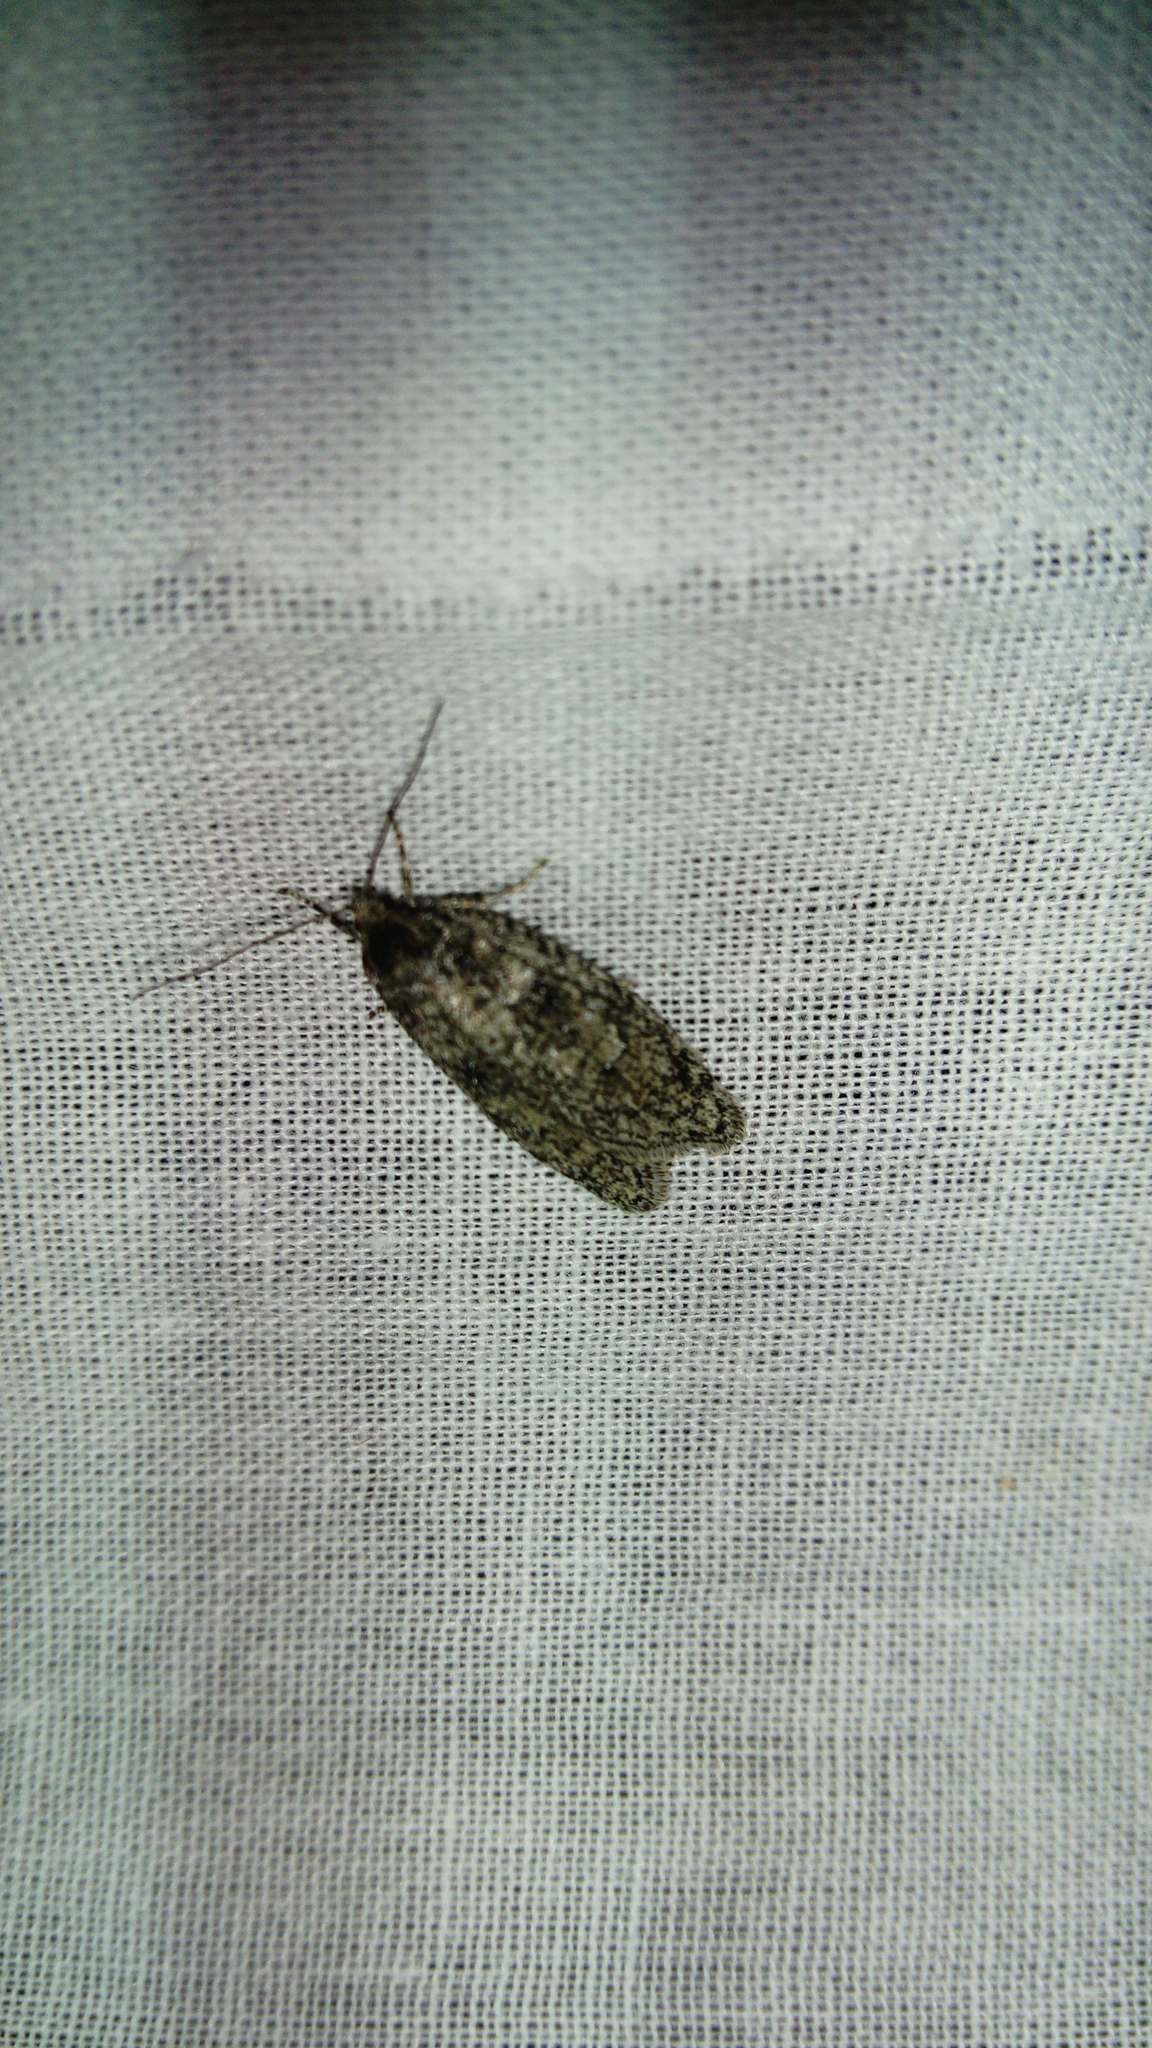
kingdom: Animalia
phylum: Arthropoda
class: Insecta
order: Lepidoptera
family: Depressariidae
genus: Semioscopis
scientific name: Semioscopis strigulana
